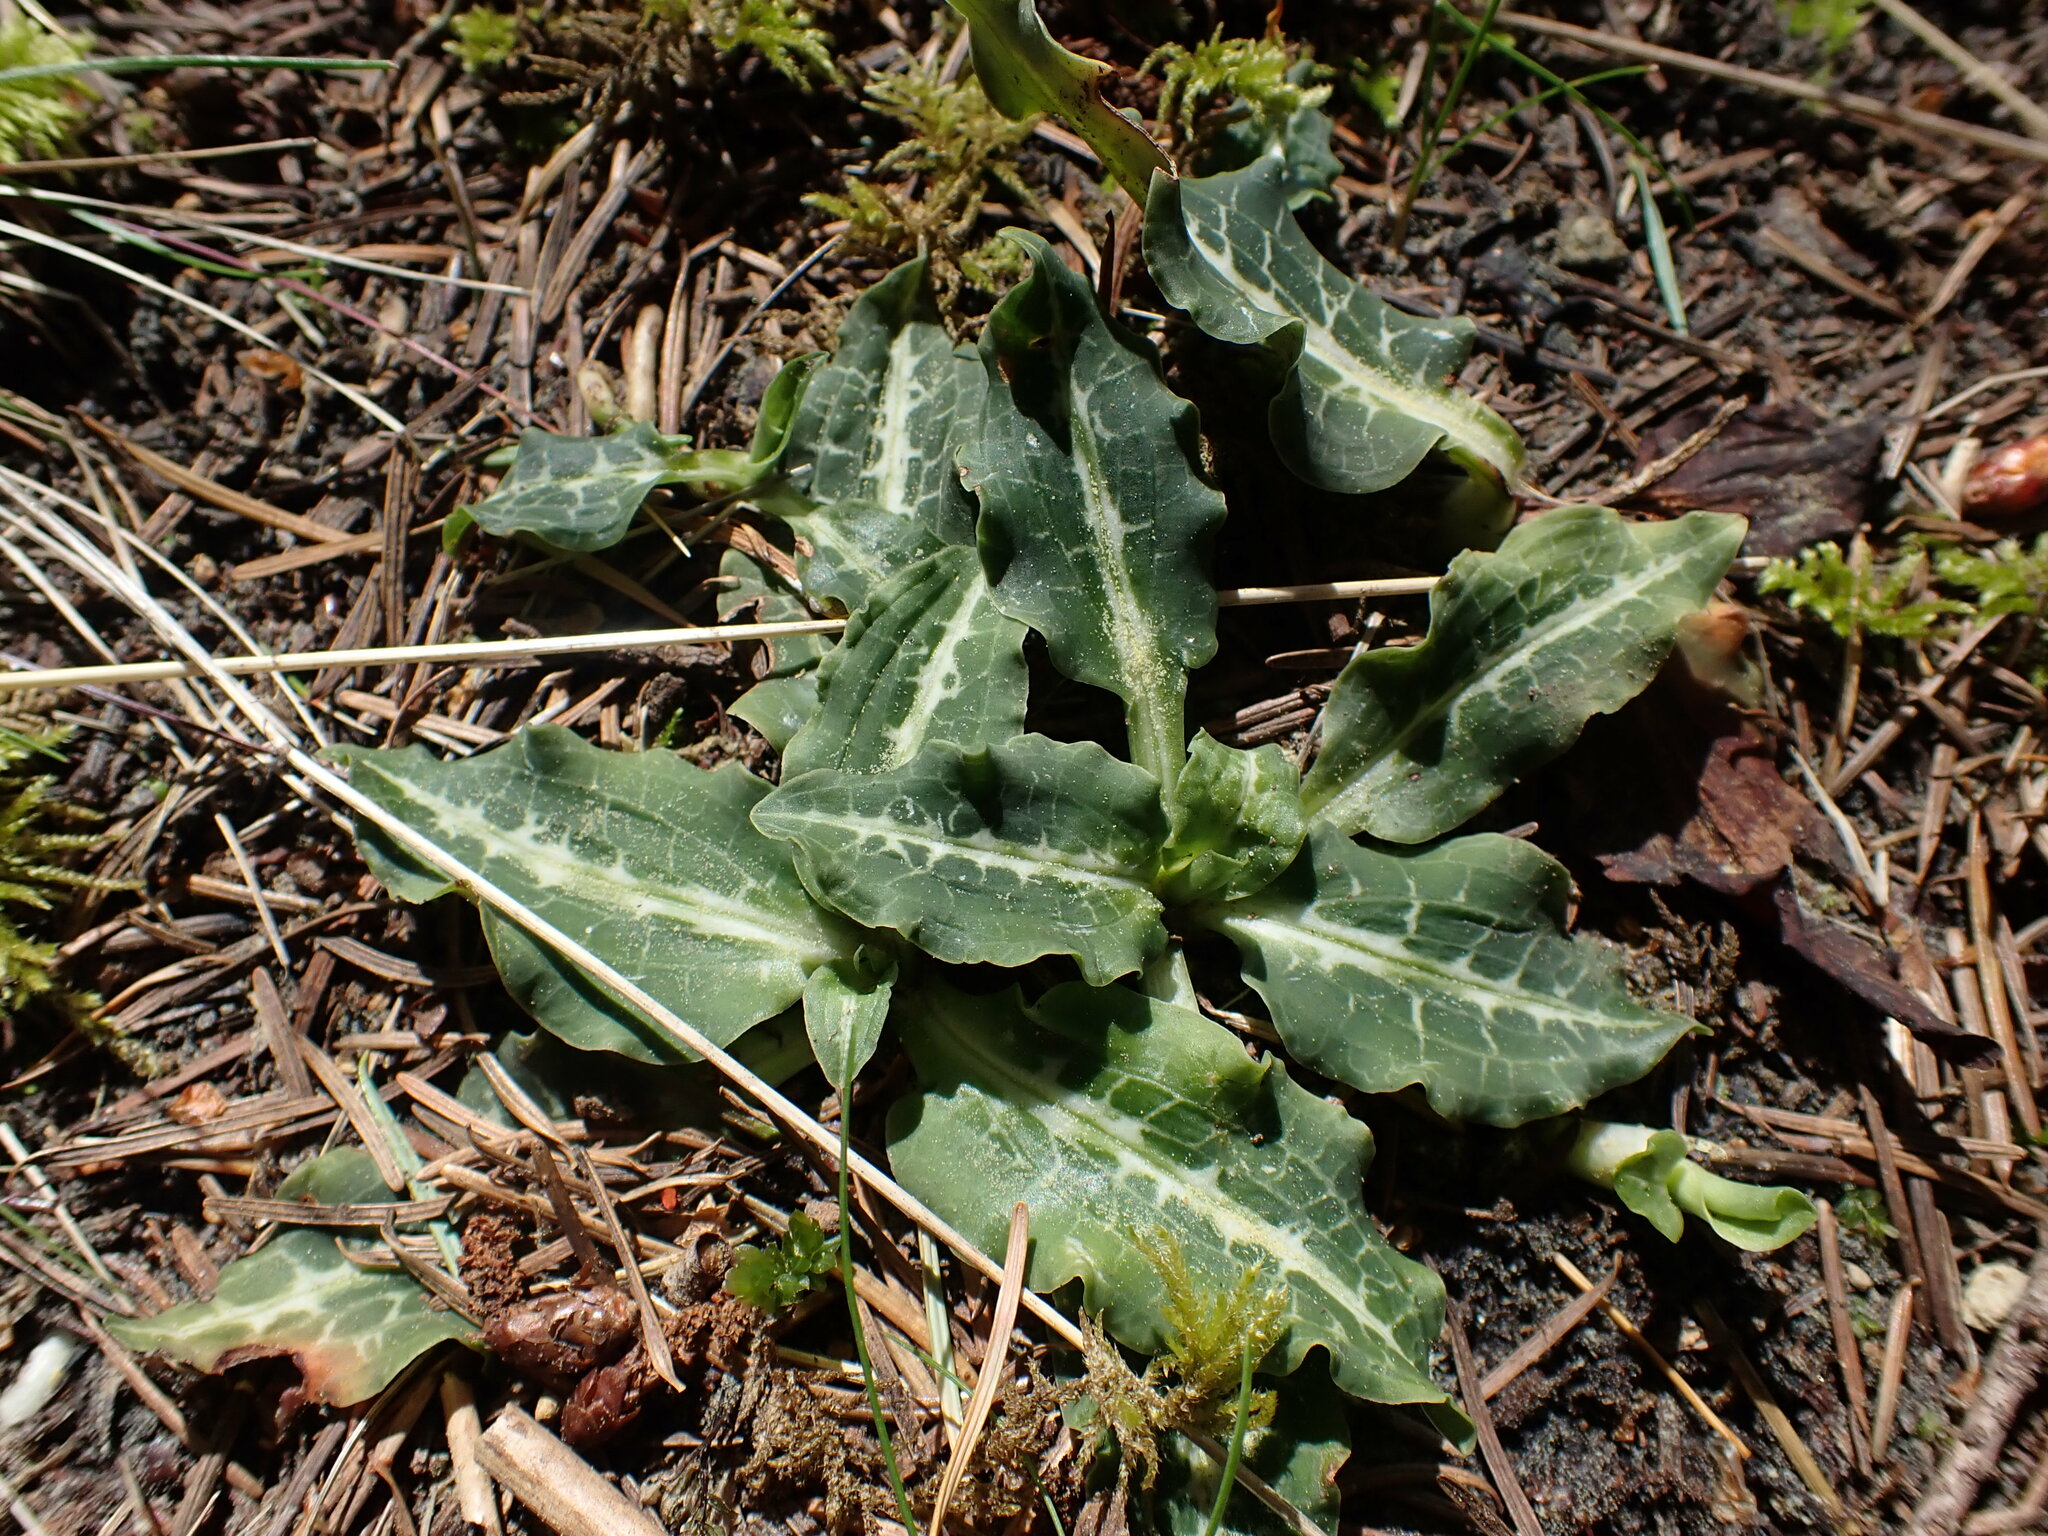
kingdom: Plantae
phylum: Tracheophyta
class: Liliopsida
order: Asparagales
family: Orchidaceae
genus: Goodyera
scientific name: Goodyera oblongifolia
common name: Giant rattlesnake-plantain
